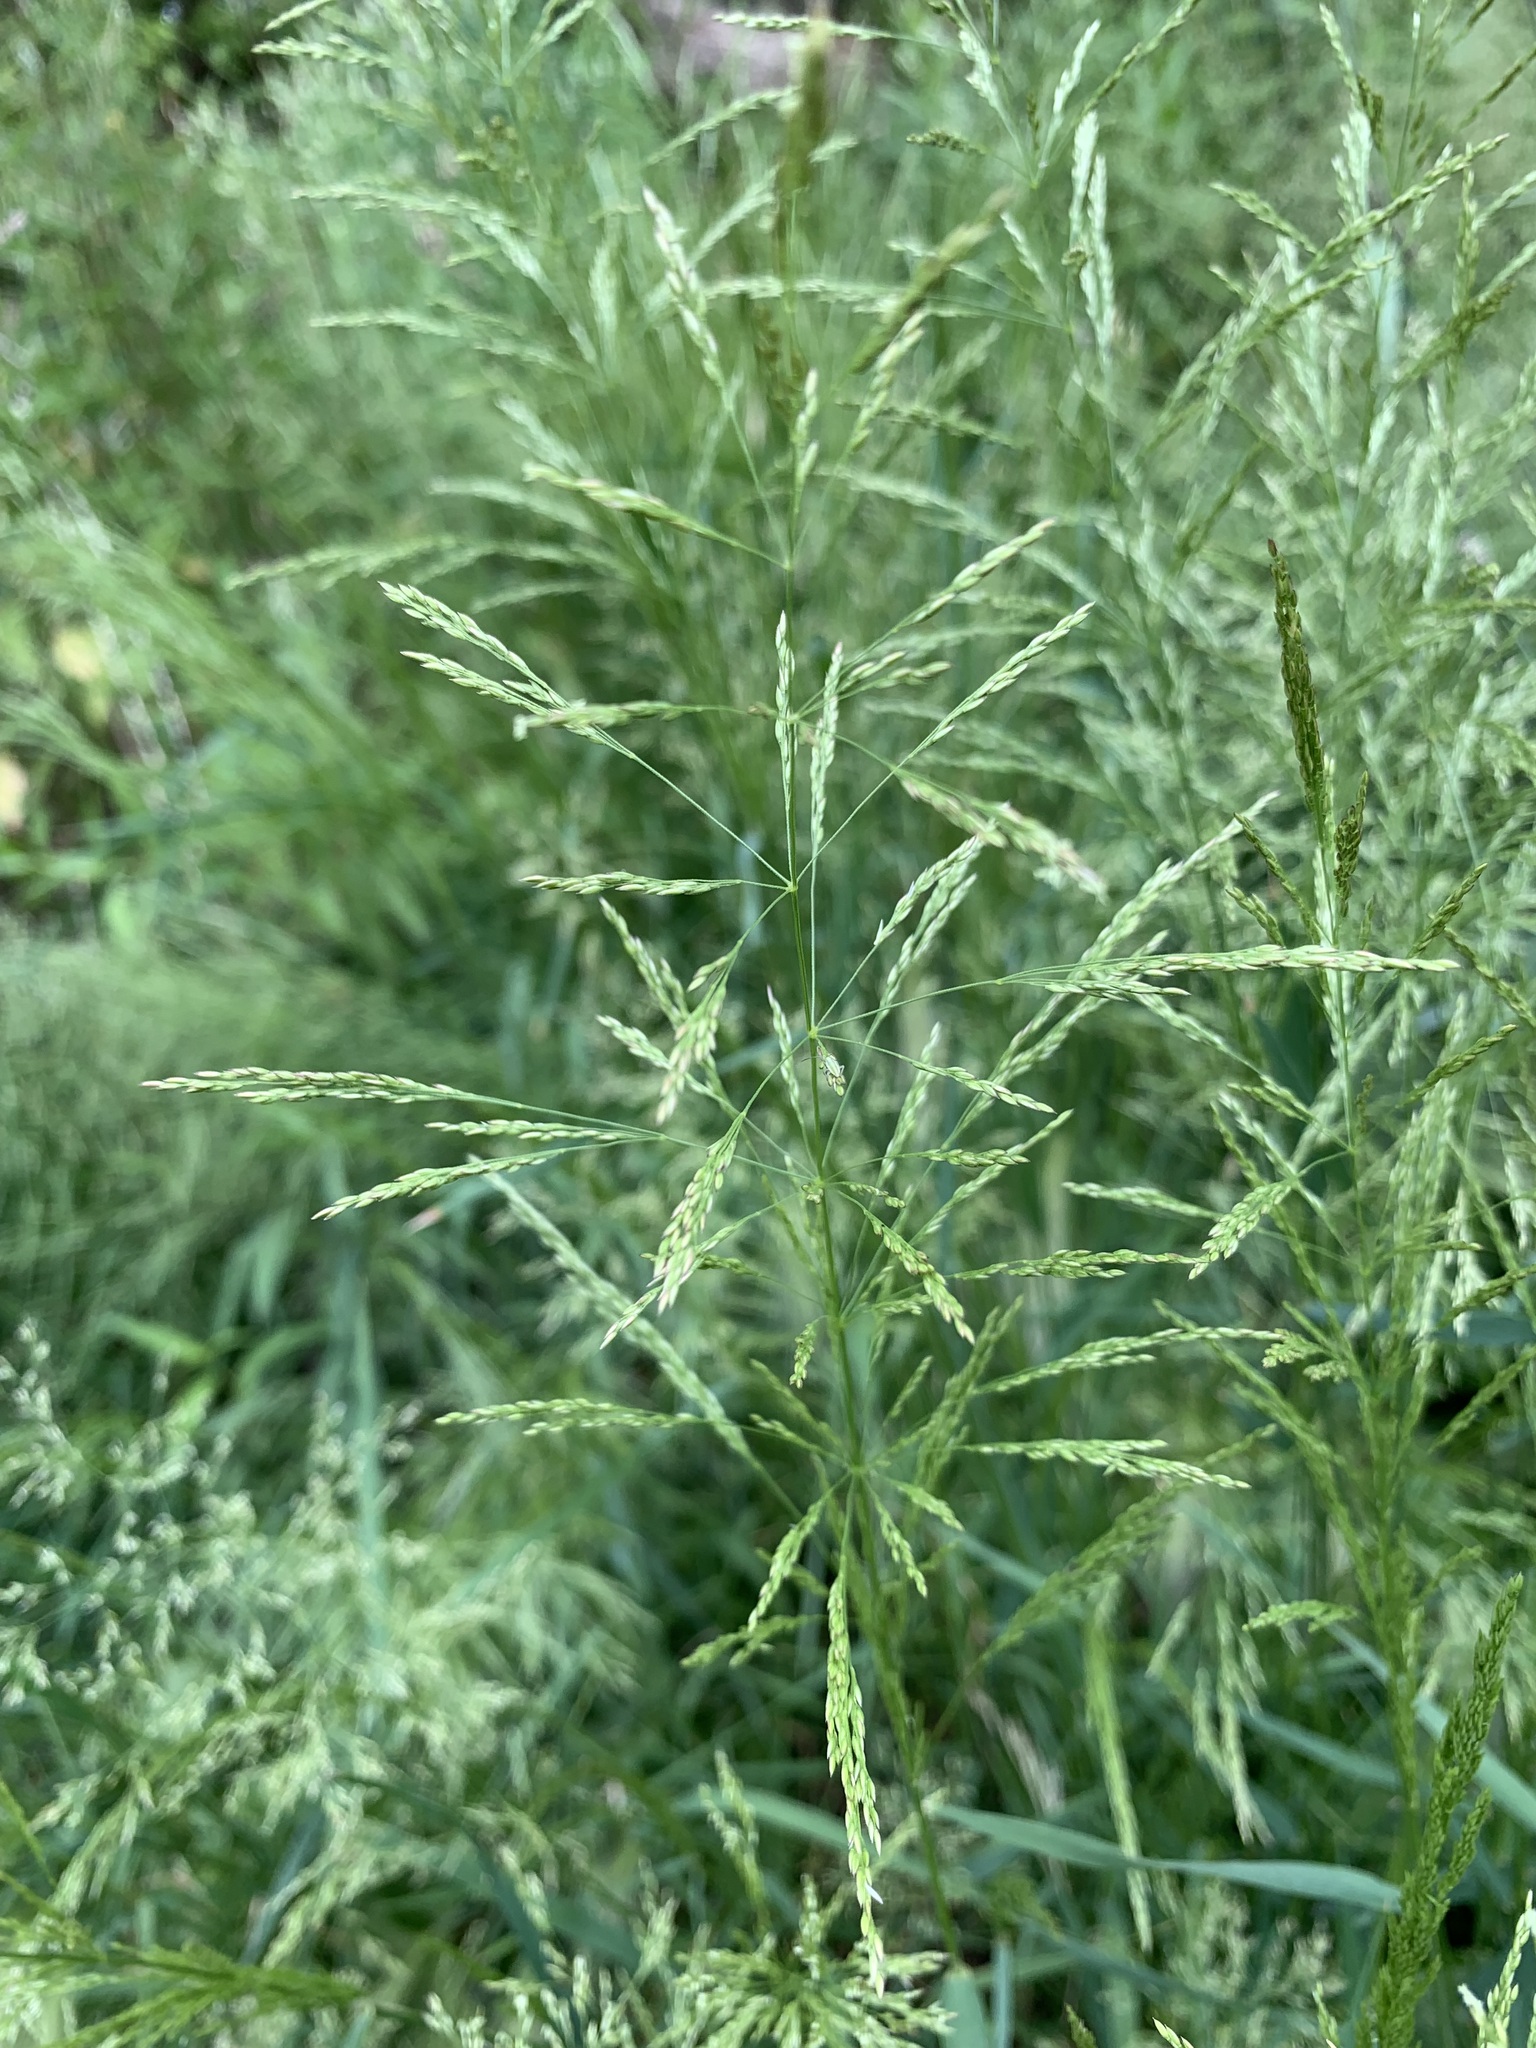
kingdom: Plantae
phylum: Tracheophyta
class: Liliopsida
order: Poales
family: Poaceae
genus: Agrostis
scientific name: Agrostis gigantea
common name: Black bent
